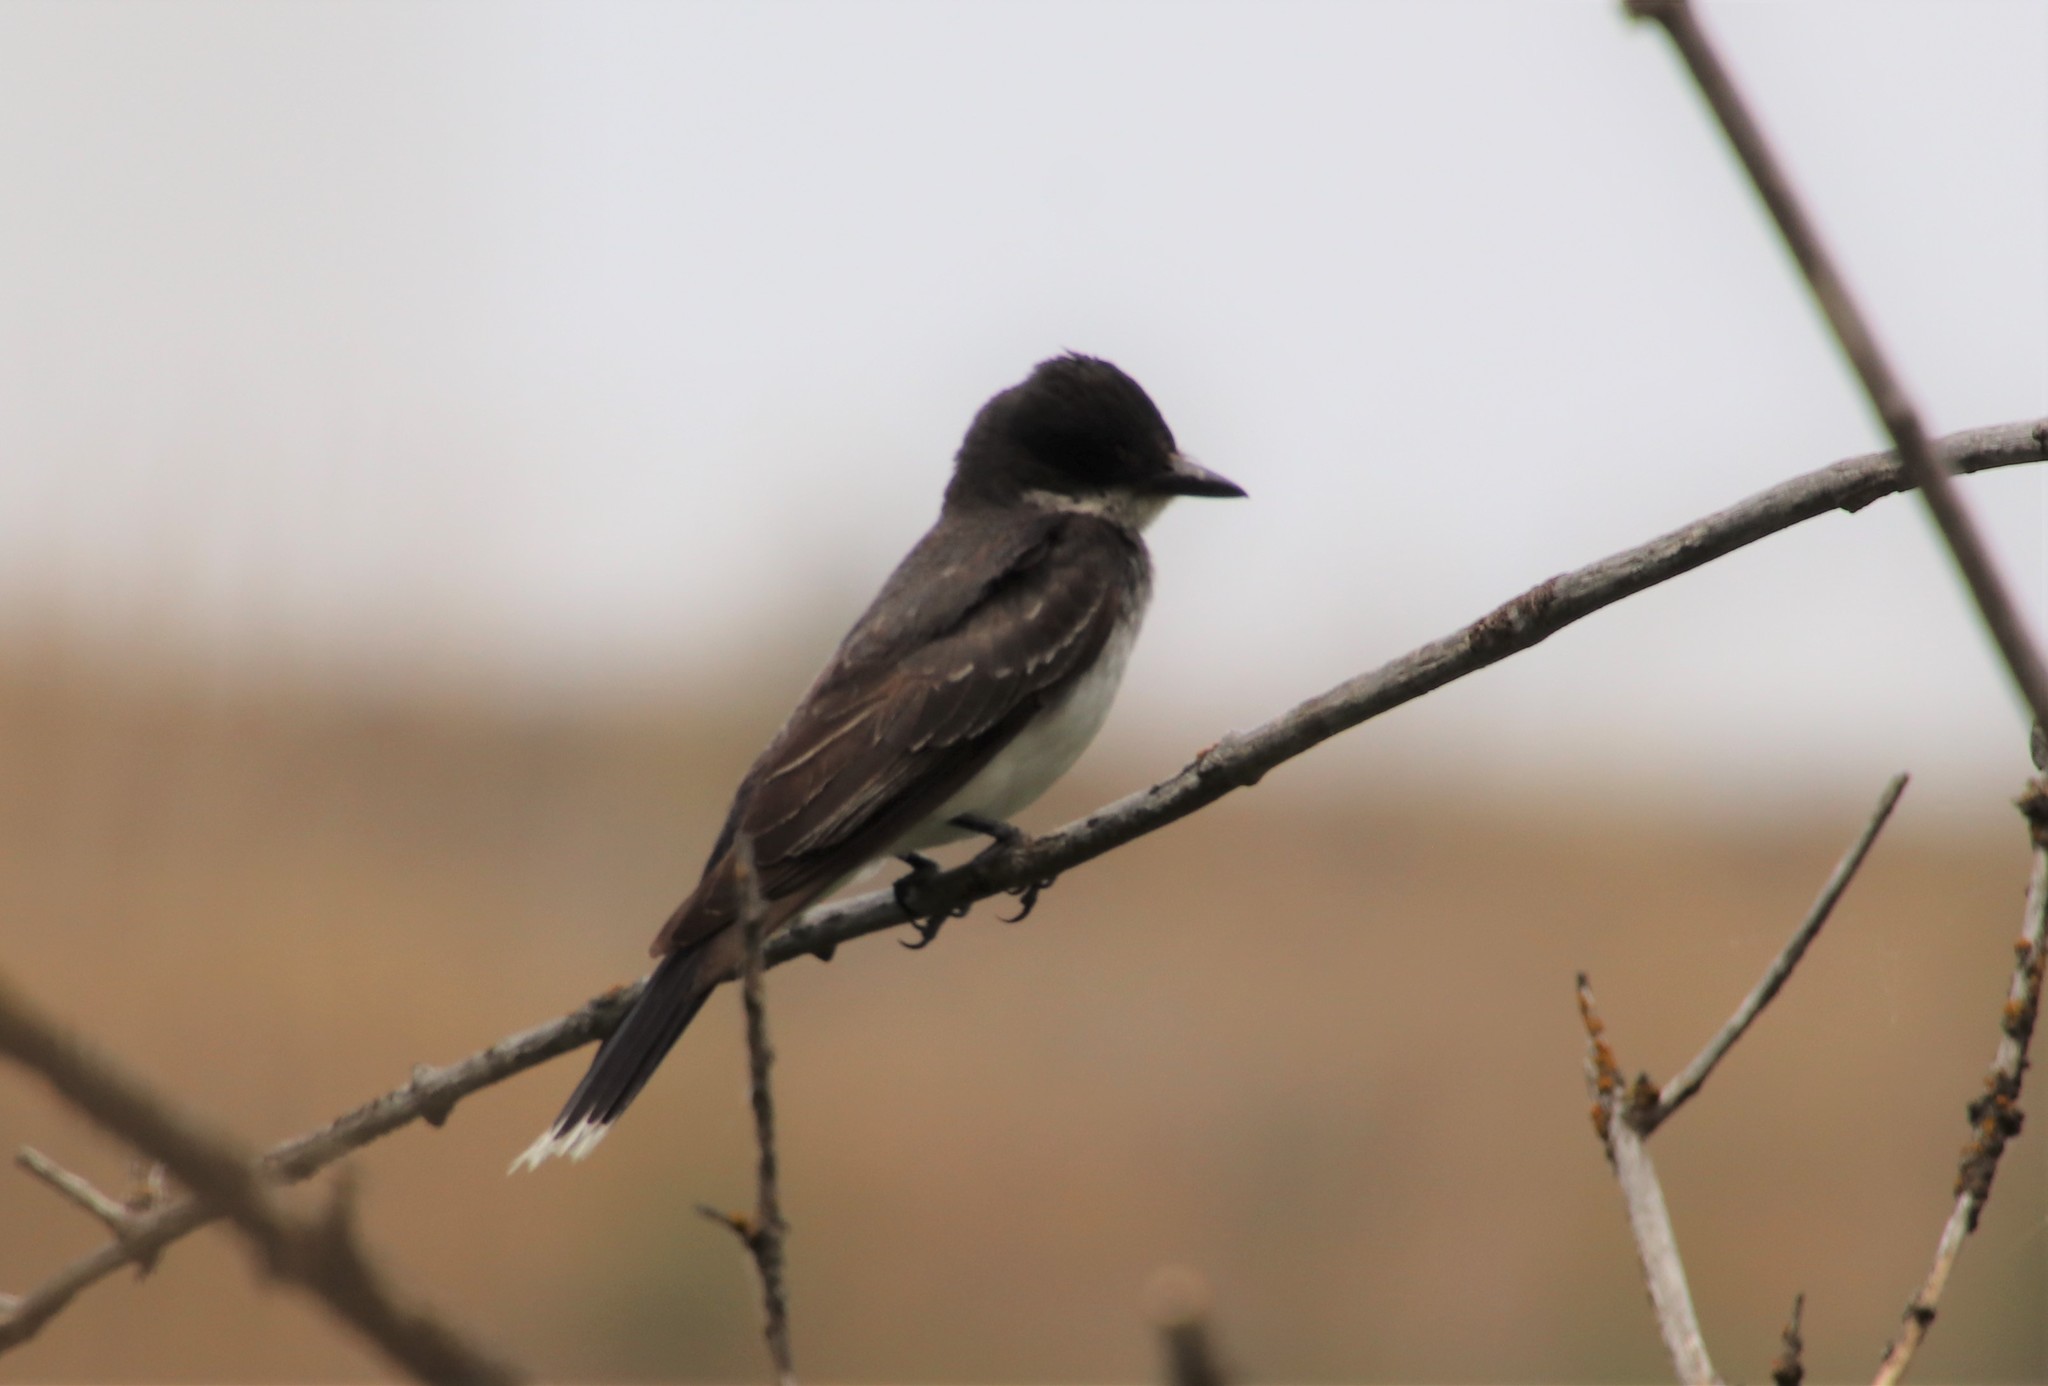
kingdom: Animalia
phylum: Chordata
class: Aves
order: Passeriformes
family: Tyrannidae
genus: Tyrannus
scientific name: Tyrannus tyrannus
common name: Eastern kingbird
